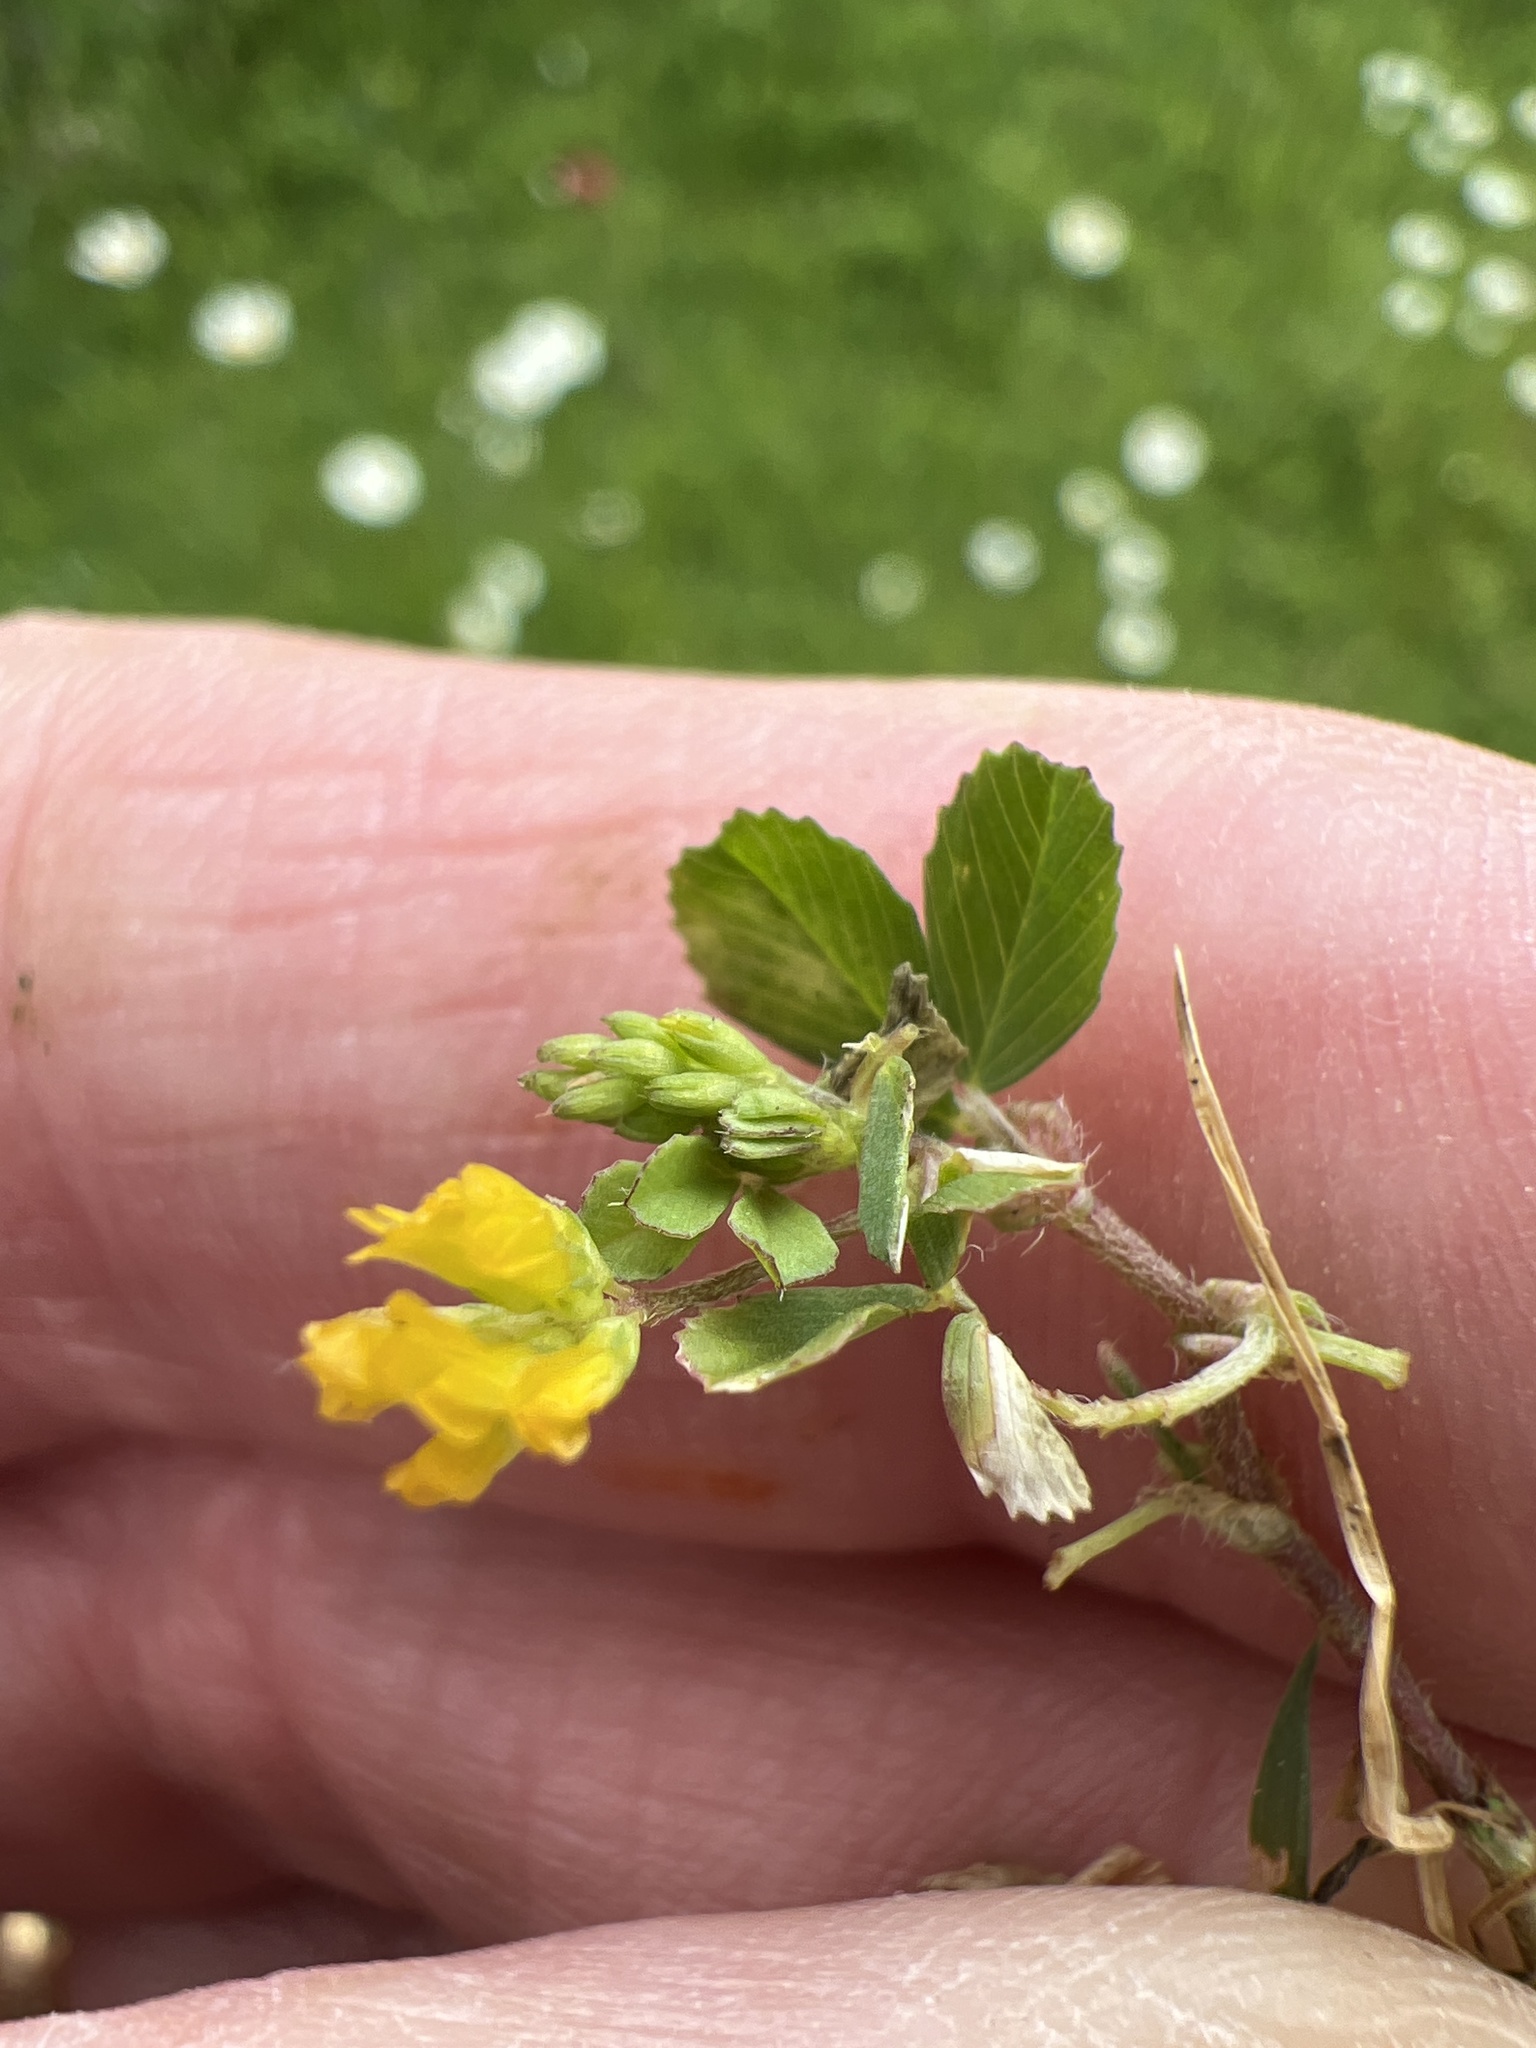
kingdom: Plantae
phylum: Tracheophyta
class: Magnoliopsida
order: Fabales
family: Fabaceae
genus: Trifolium
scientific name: Trifolium dubium
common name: Suckling clover
